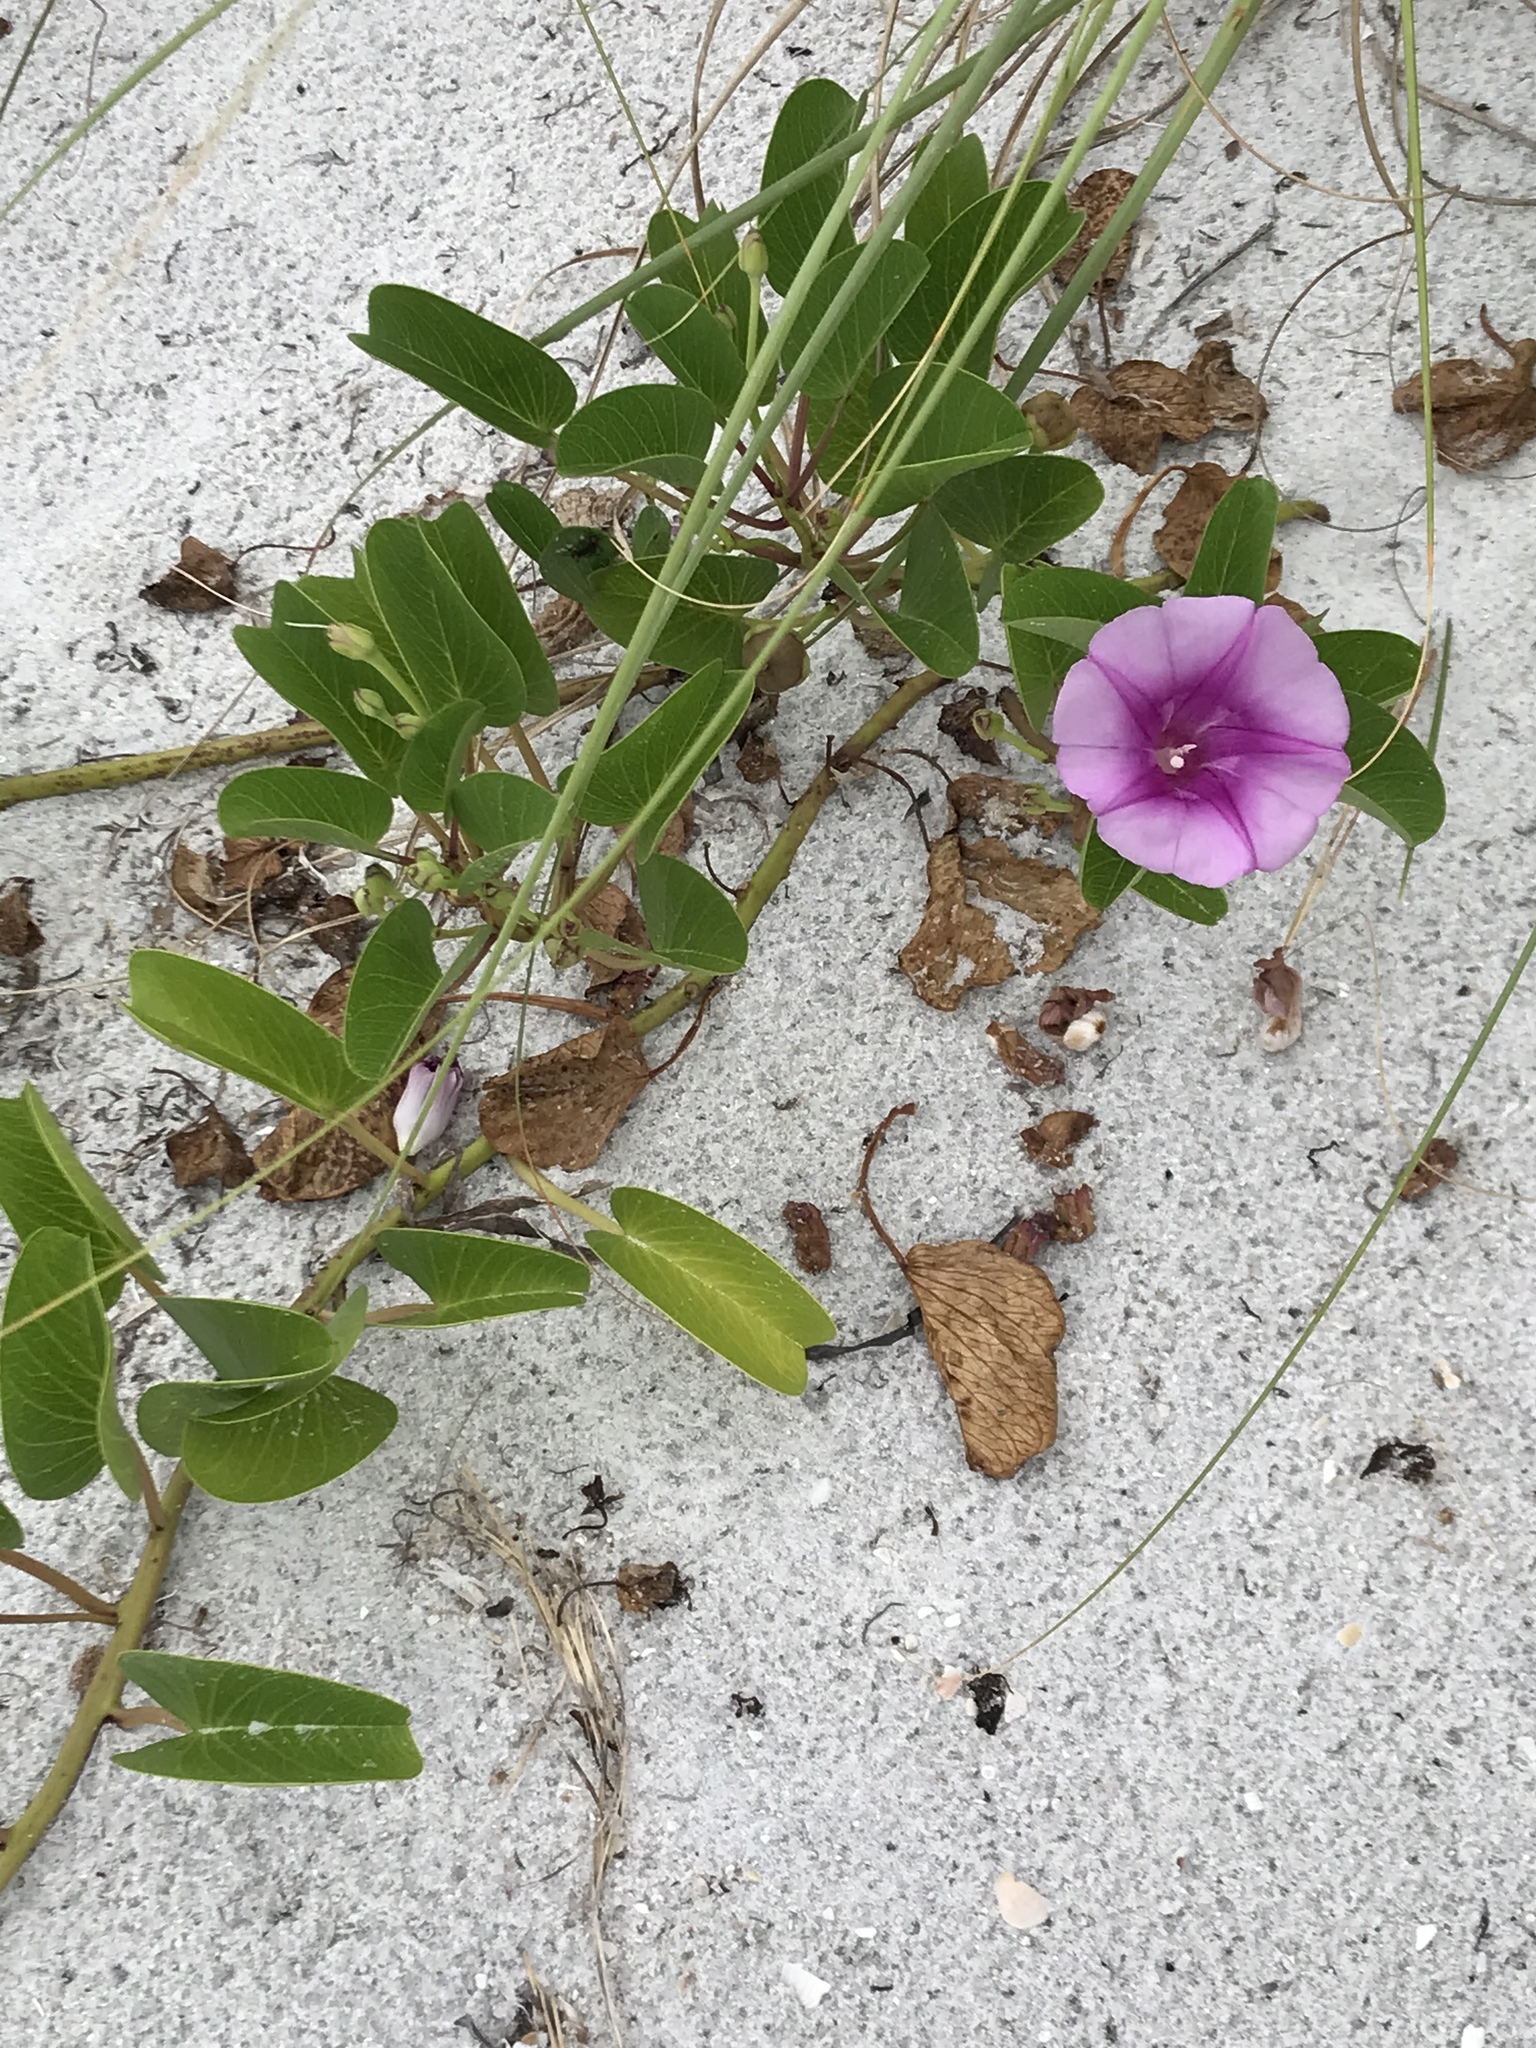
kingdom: Plantae
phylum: Tracheophyta
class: Magnoliopsida
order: Solanales
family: Convolvulaceae
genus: Ipomoea
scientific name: Ipomoea pes-caprae
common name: Beach morning glory
